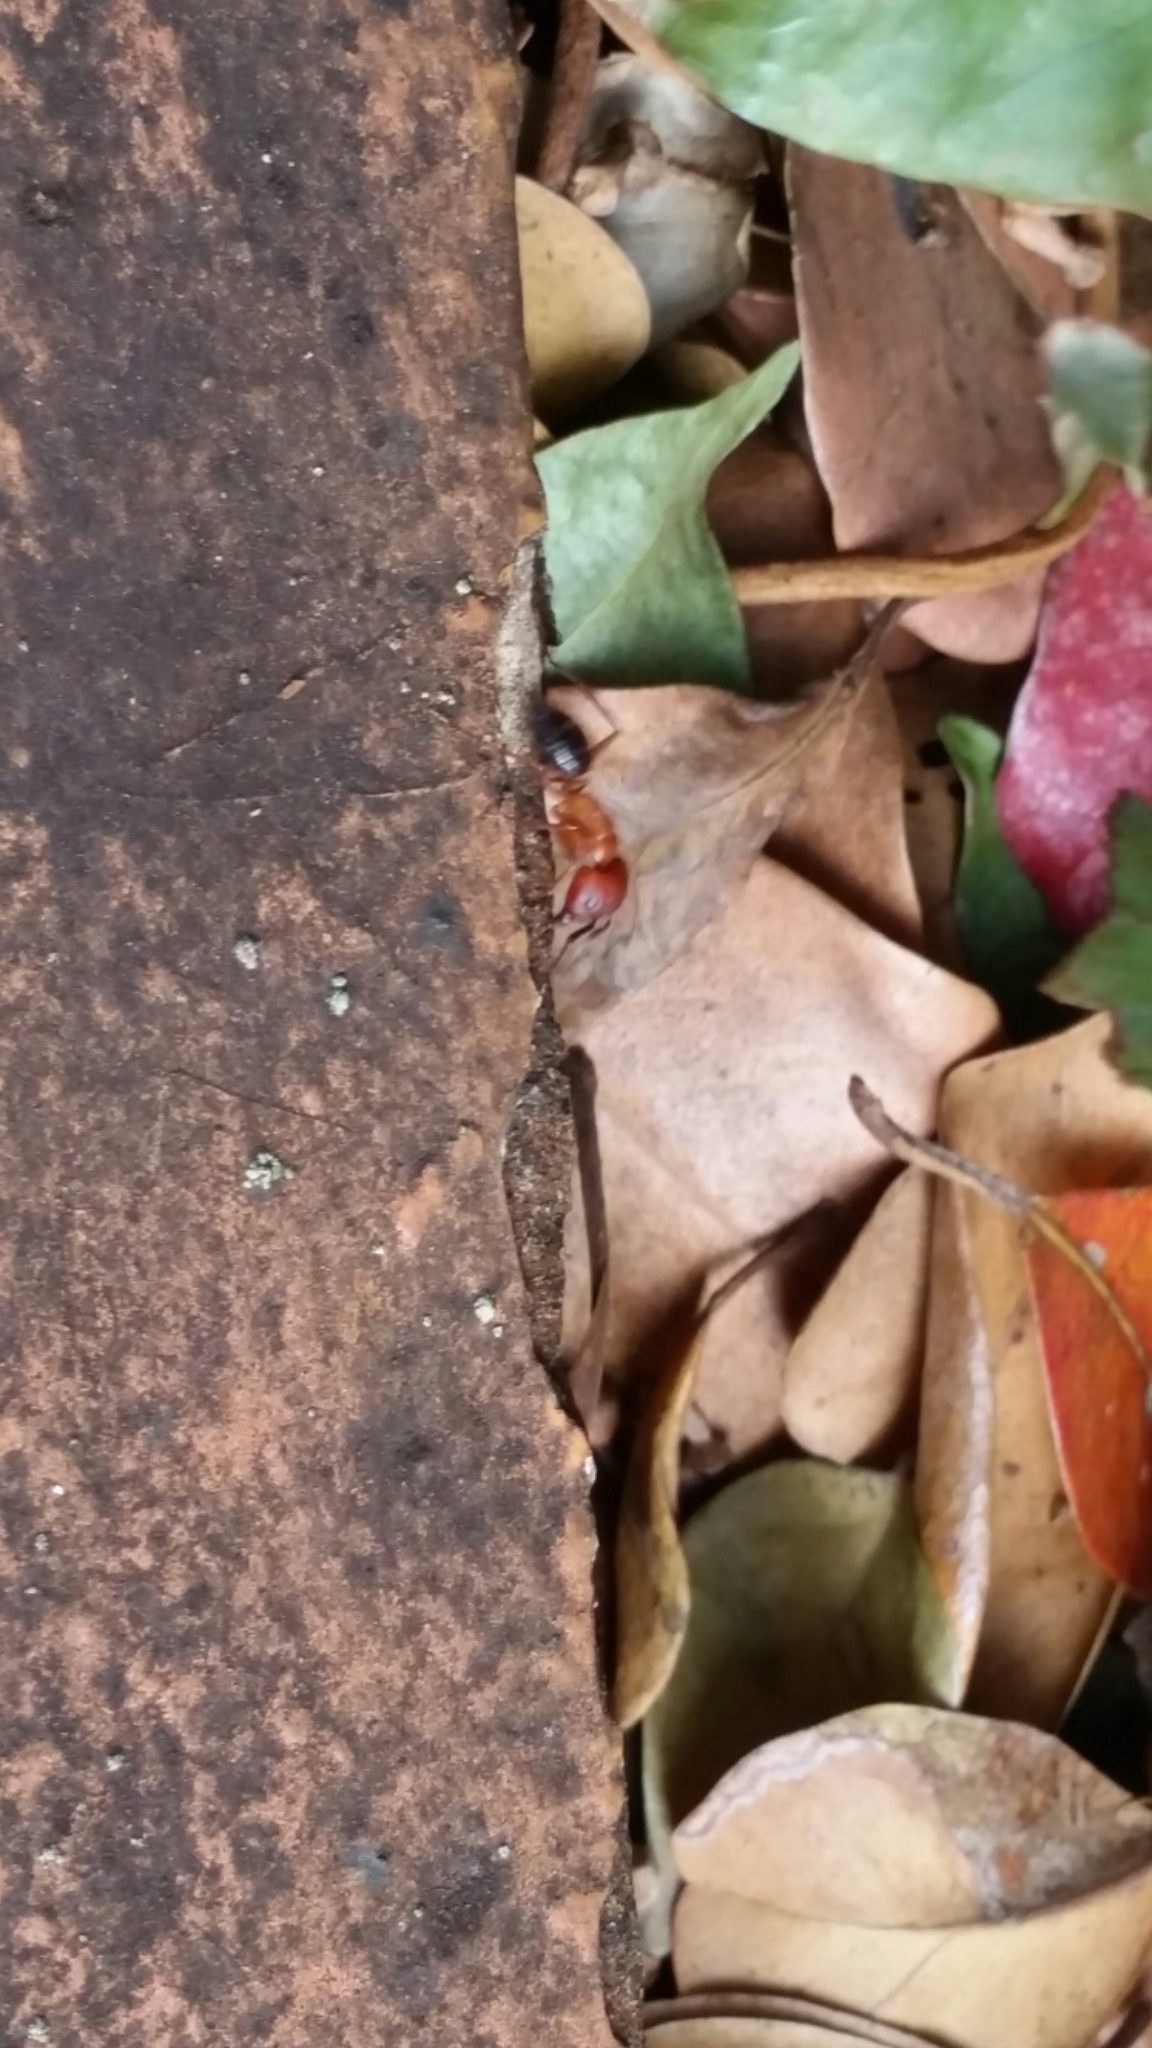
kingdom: Animalia
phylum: Arthropoda
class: Insecta
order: Hymenoptera
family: Formicidae
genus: Camponotus
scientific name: Camponotus floridanus
